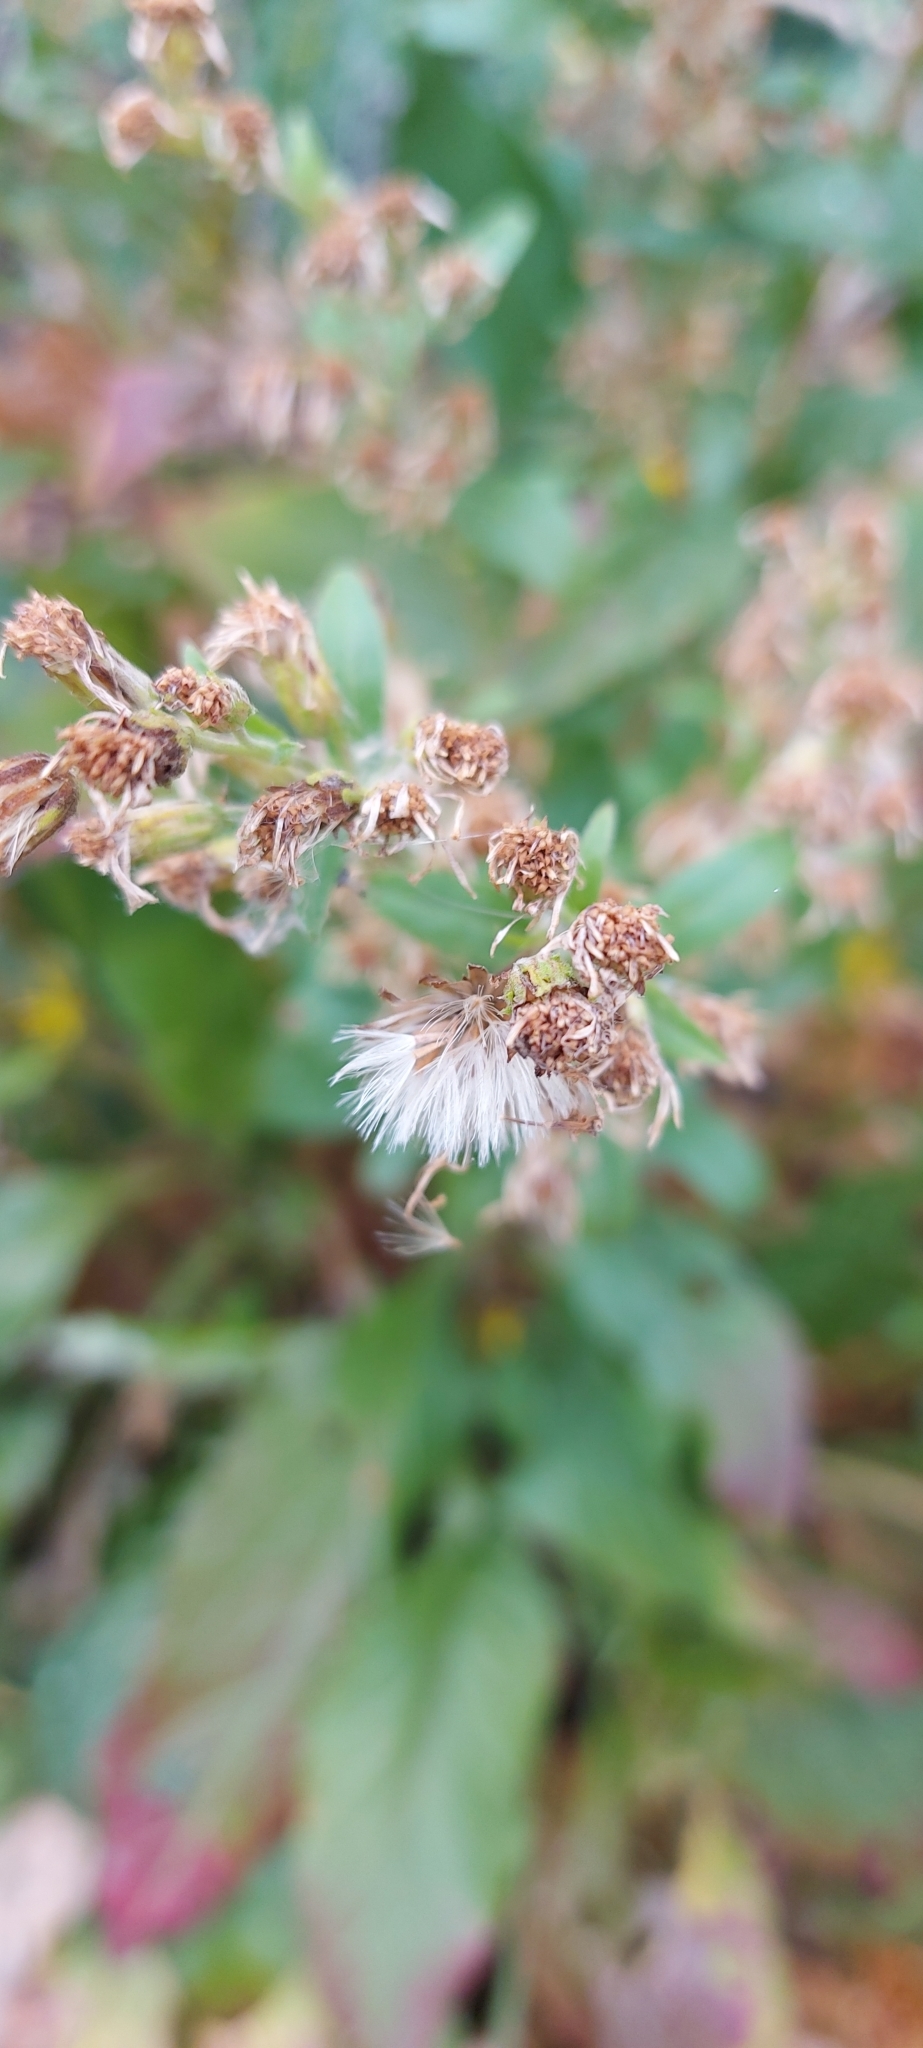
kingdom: Plantae
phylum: Tracheophyta
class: Magnoliopsida
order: Asterales
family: Asteraceae
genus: Solidago
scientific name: Solidago virgaurea
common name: Goldenrod
